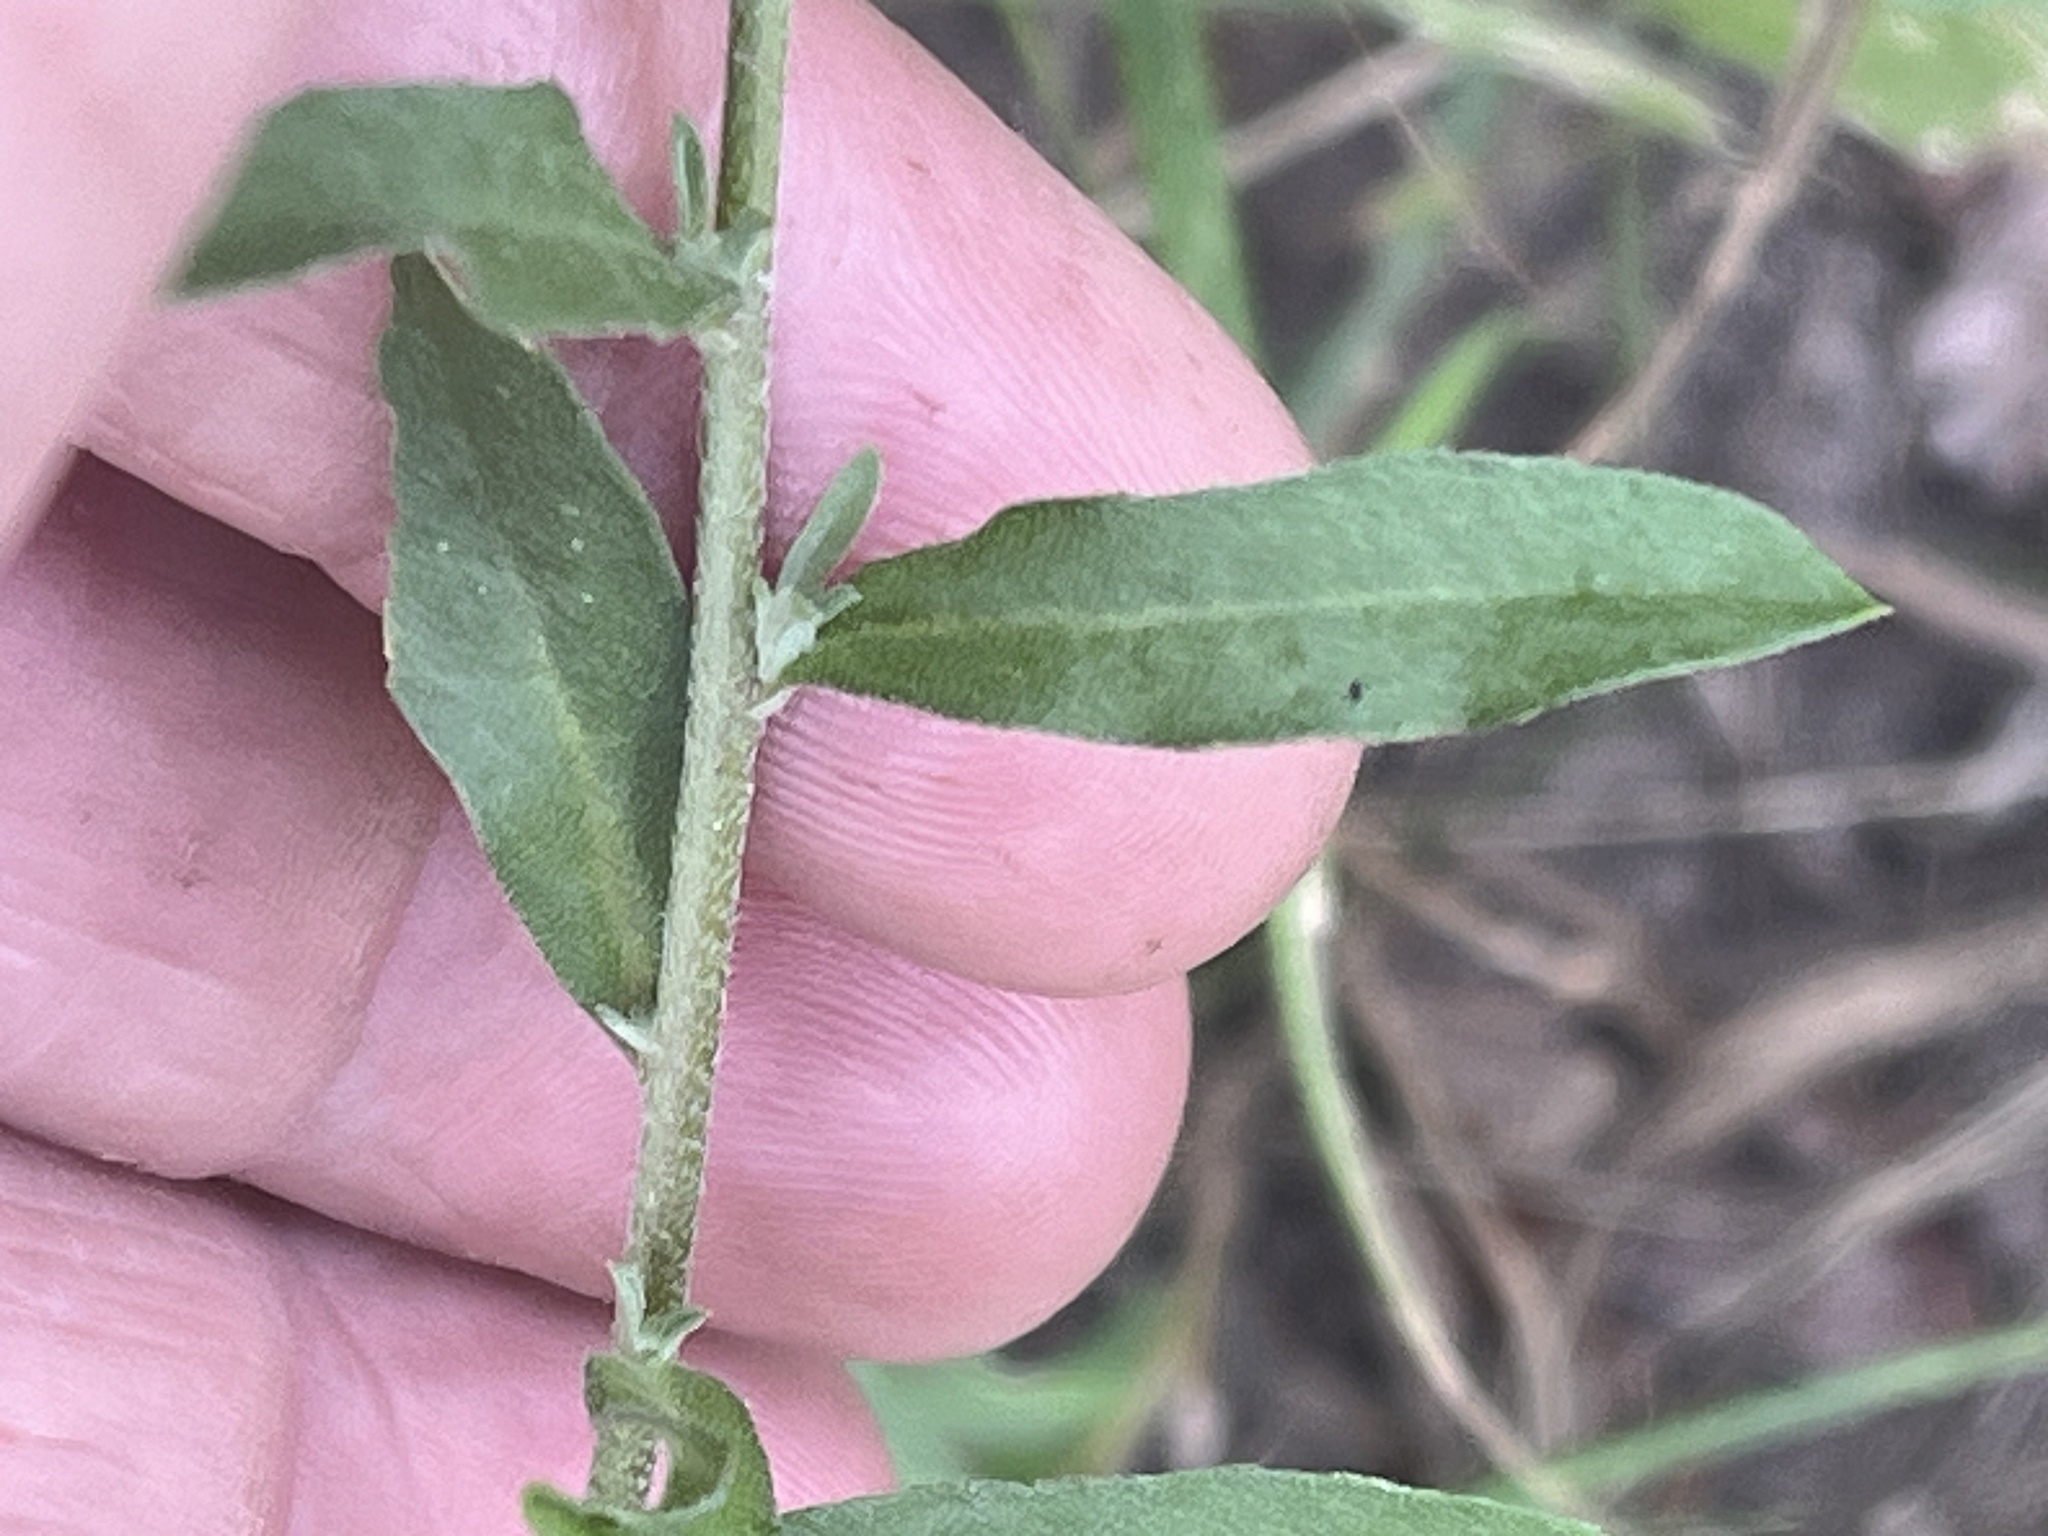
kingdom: Plantae
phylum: Tracheophyta
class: Magnoliopsida
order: Brassicales
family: Brassicaceae
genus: Berteroa
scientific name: Berteroa incana
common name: Hoary alison
